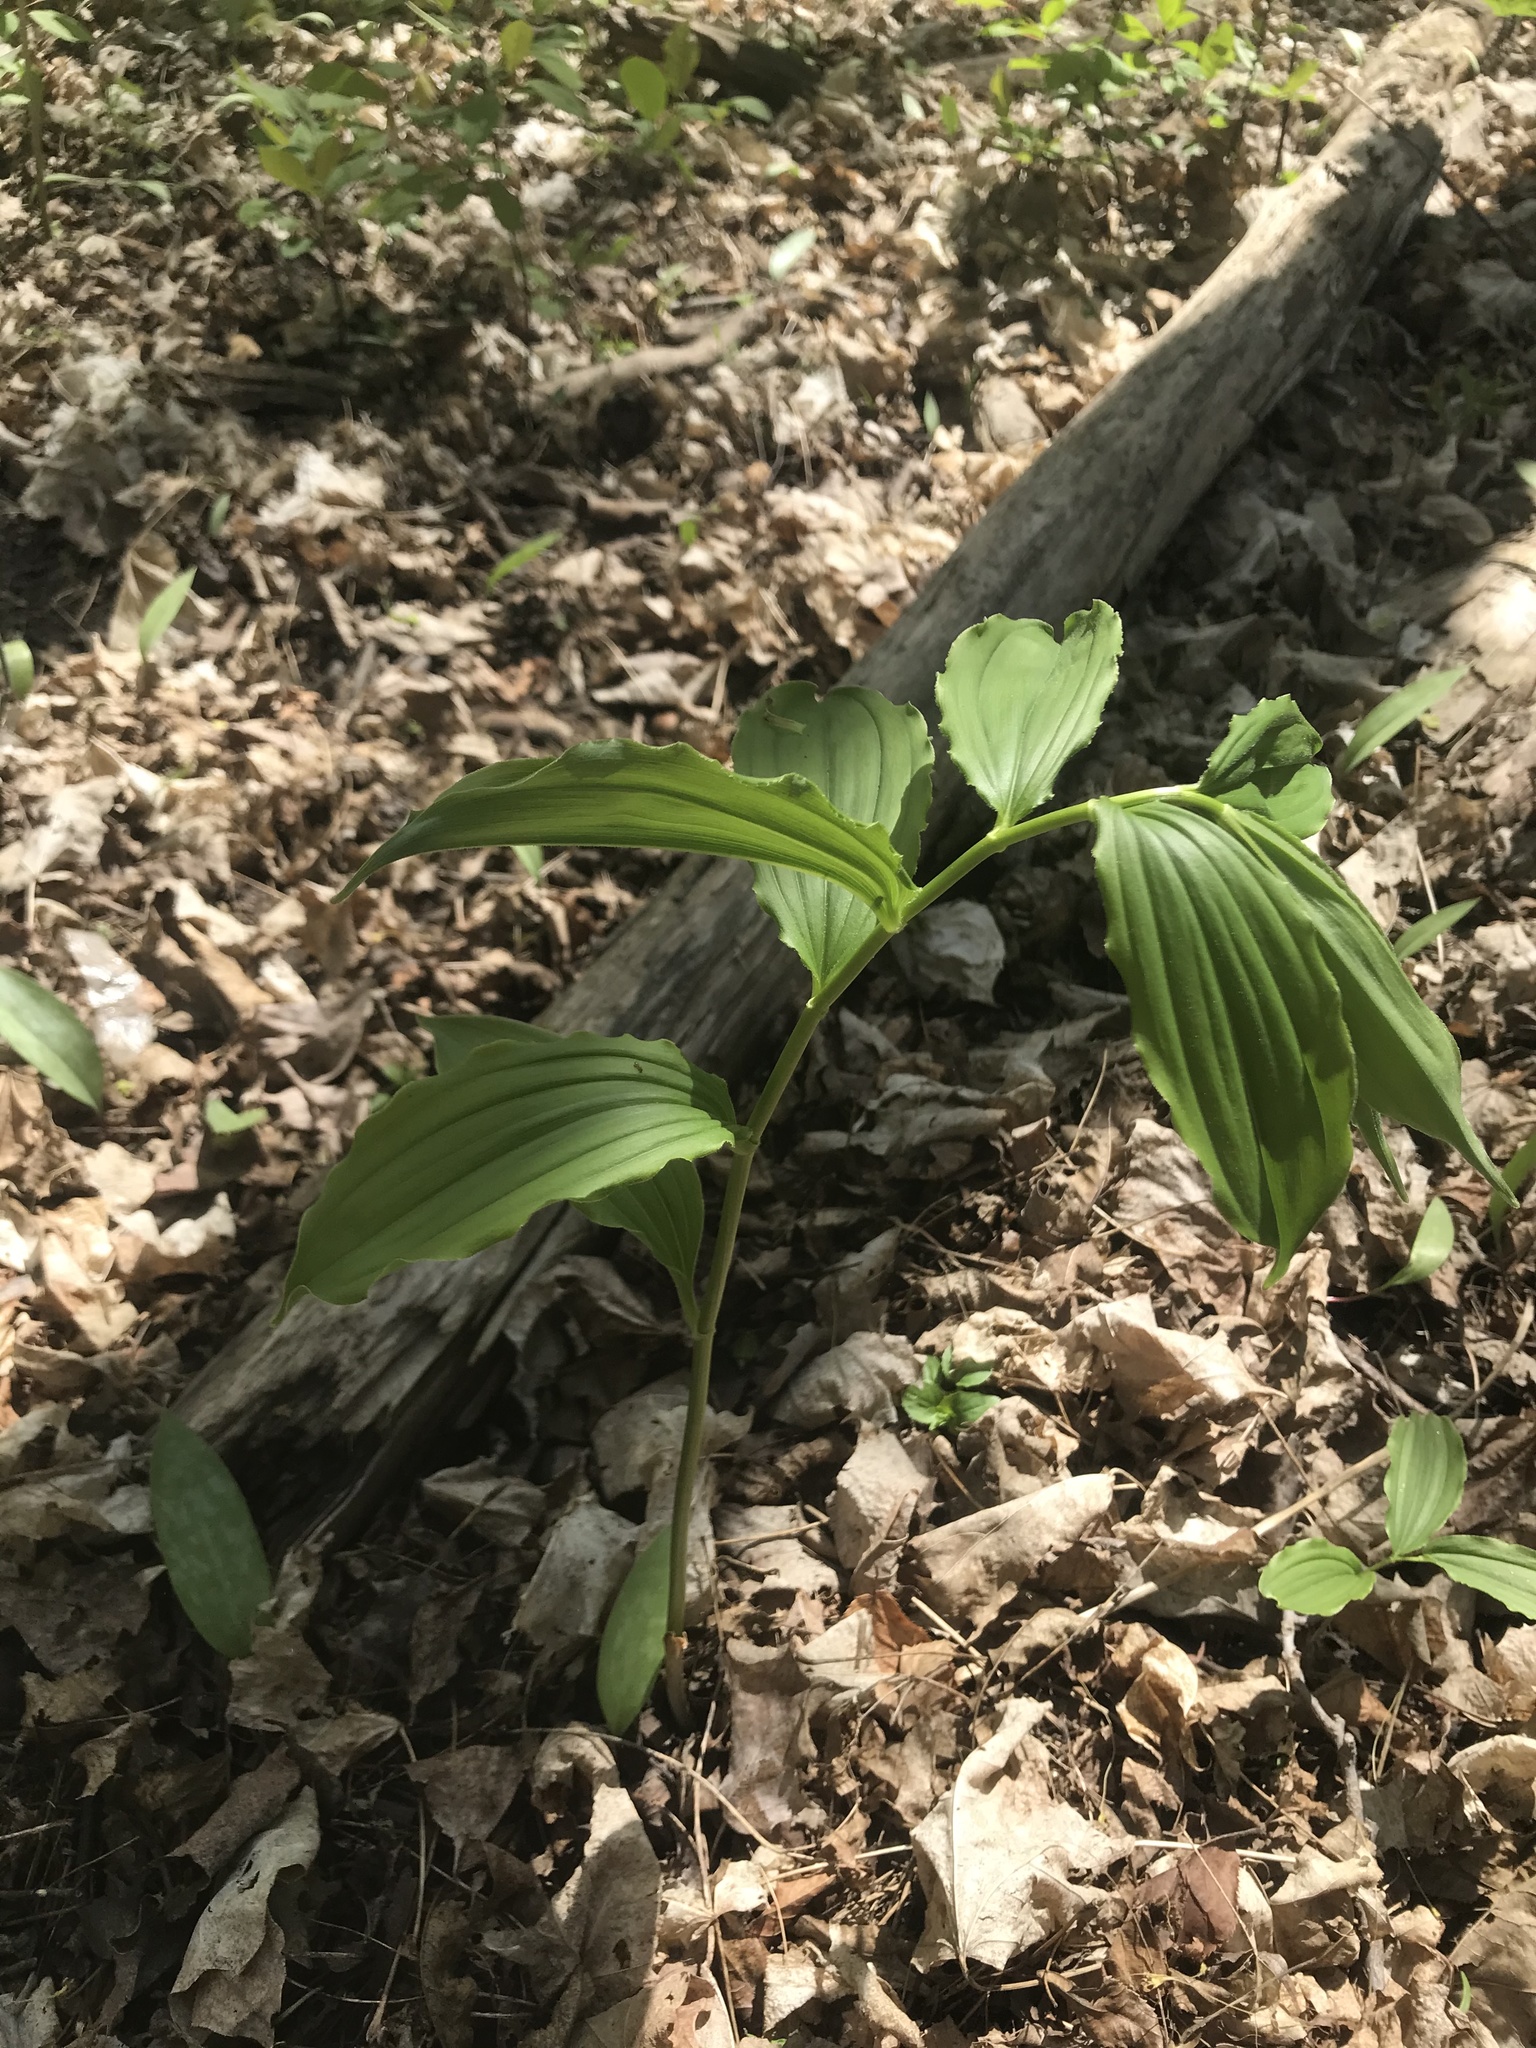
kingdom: Plantae
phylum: Tracheophyta
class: Liliopsida
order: Asparagales
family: Asparagaceae
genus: Maianthemum
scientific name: Maianthemum racemosum
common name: False spikenard
